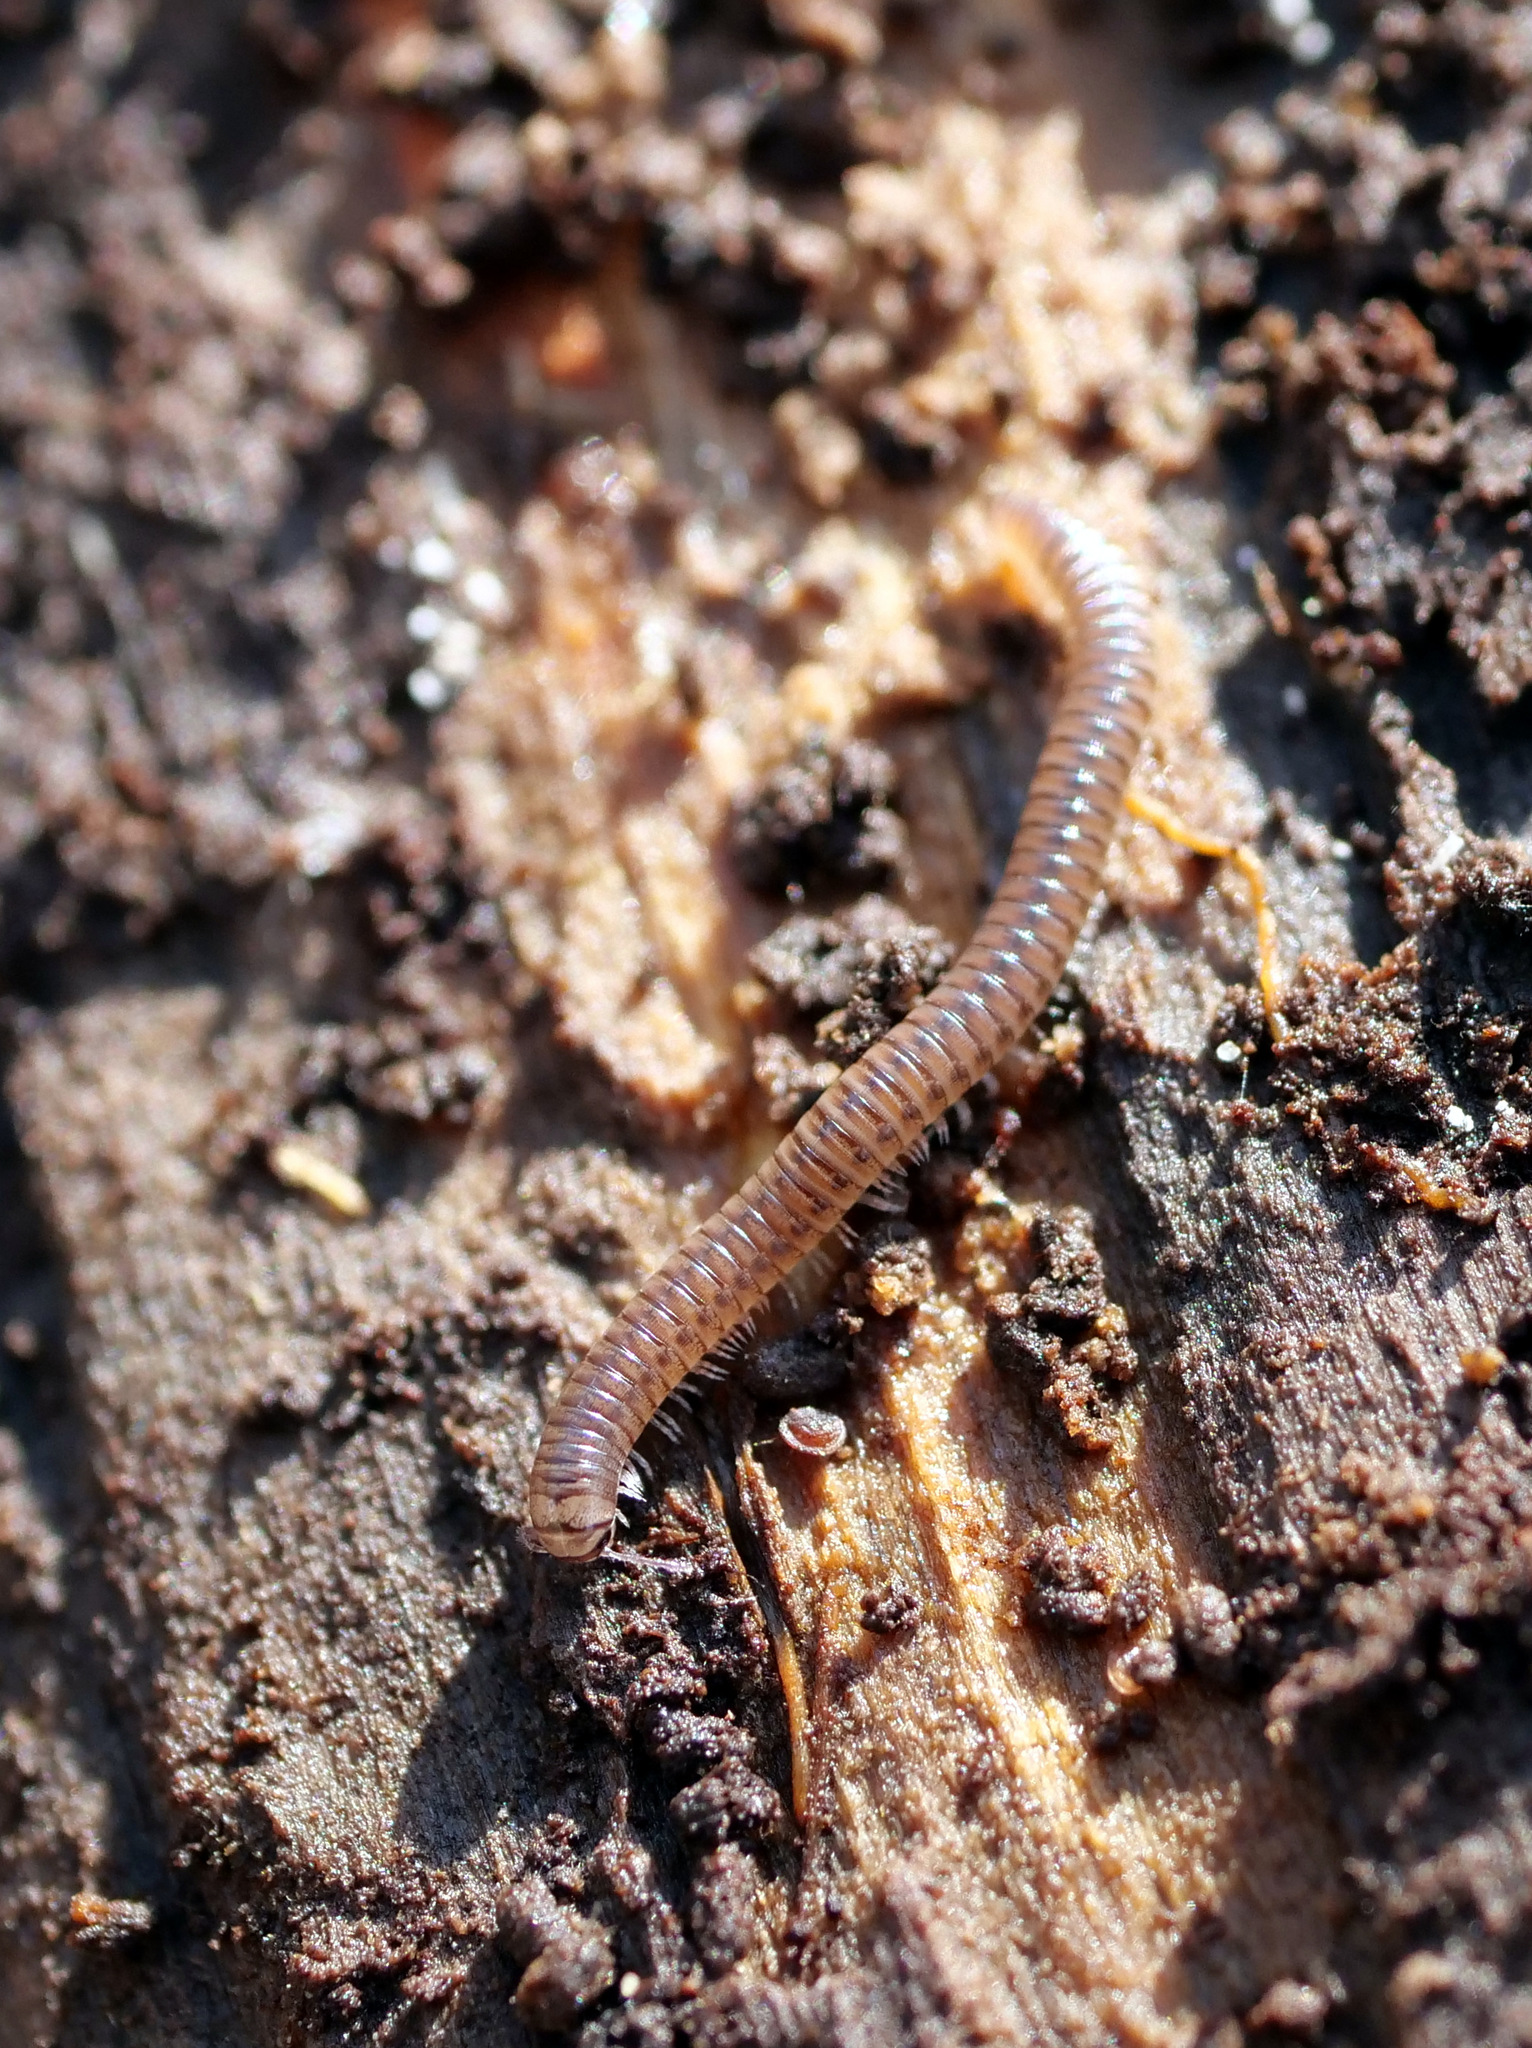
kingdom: Animalia
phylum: Arthropoda
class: Diplopoda
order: Julida
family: Julidae
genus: Cylindroiulus
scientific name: Cylindroiulus punctatus
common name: Blunt-tailed millipede
